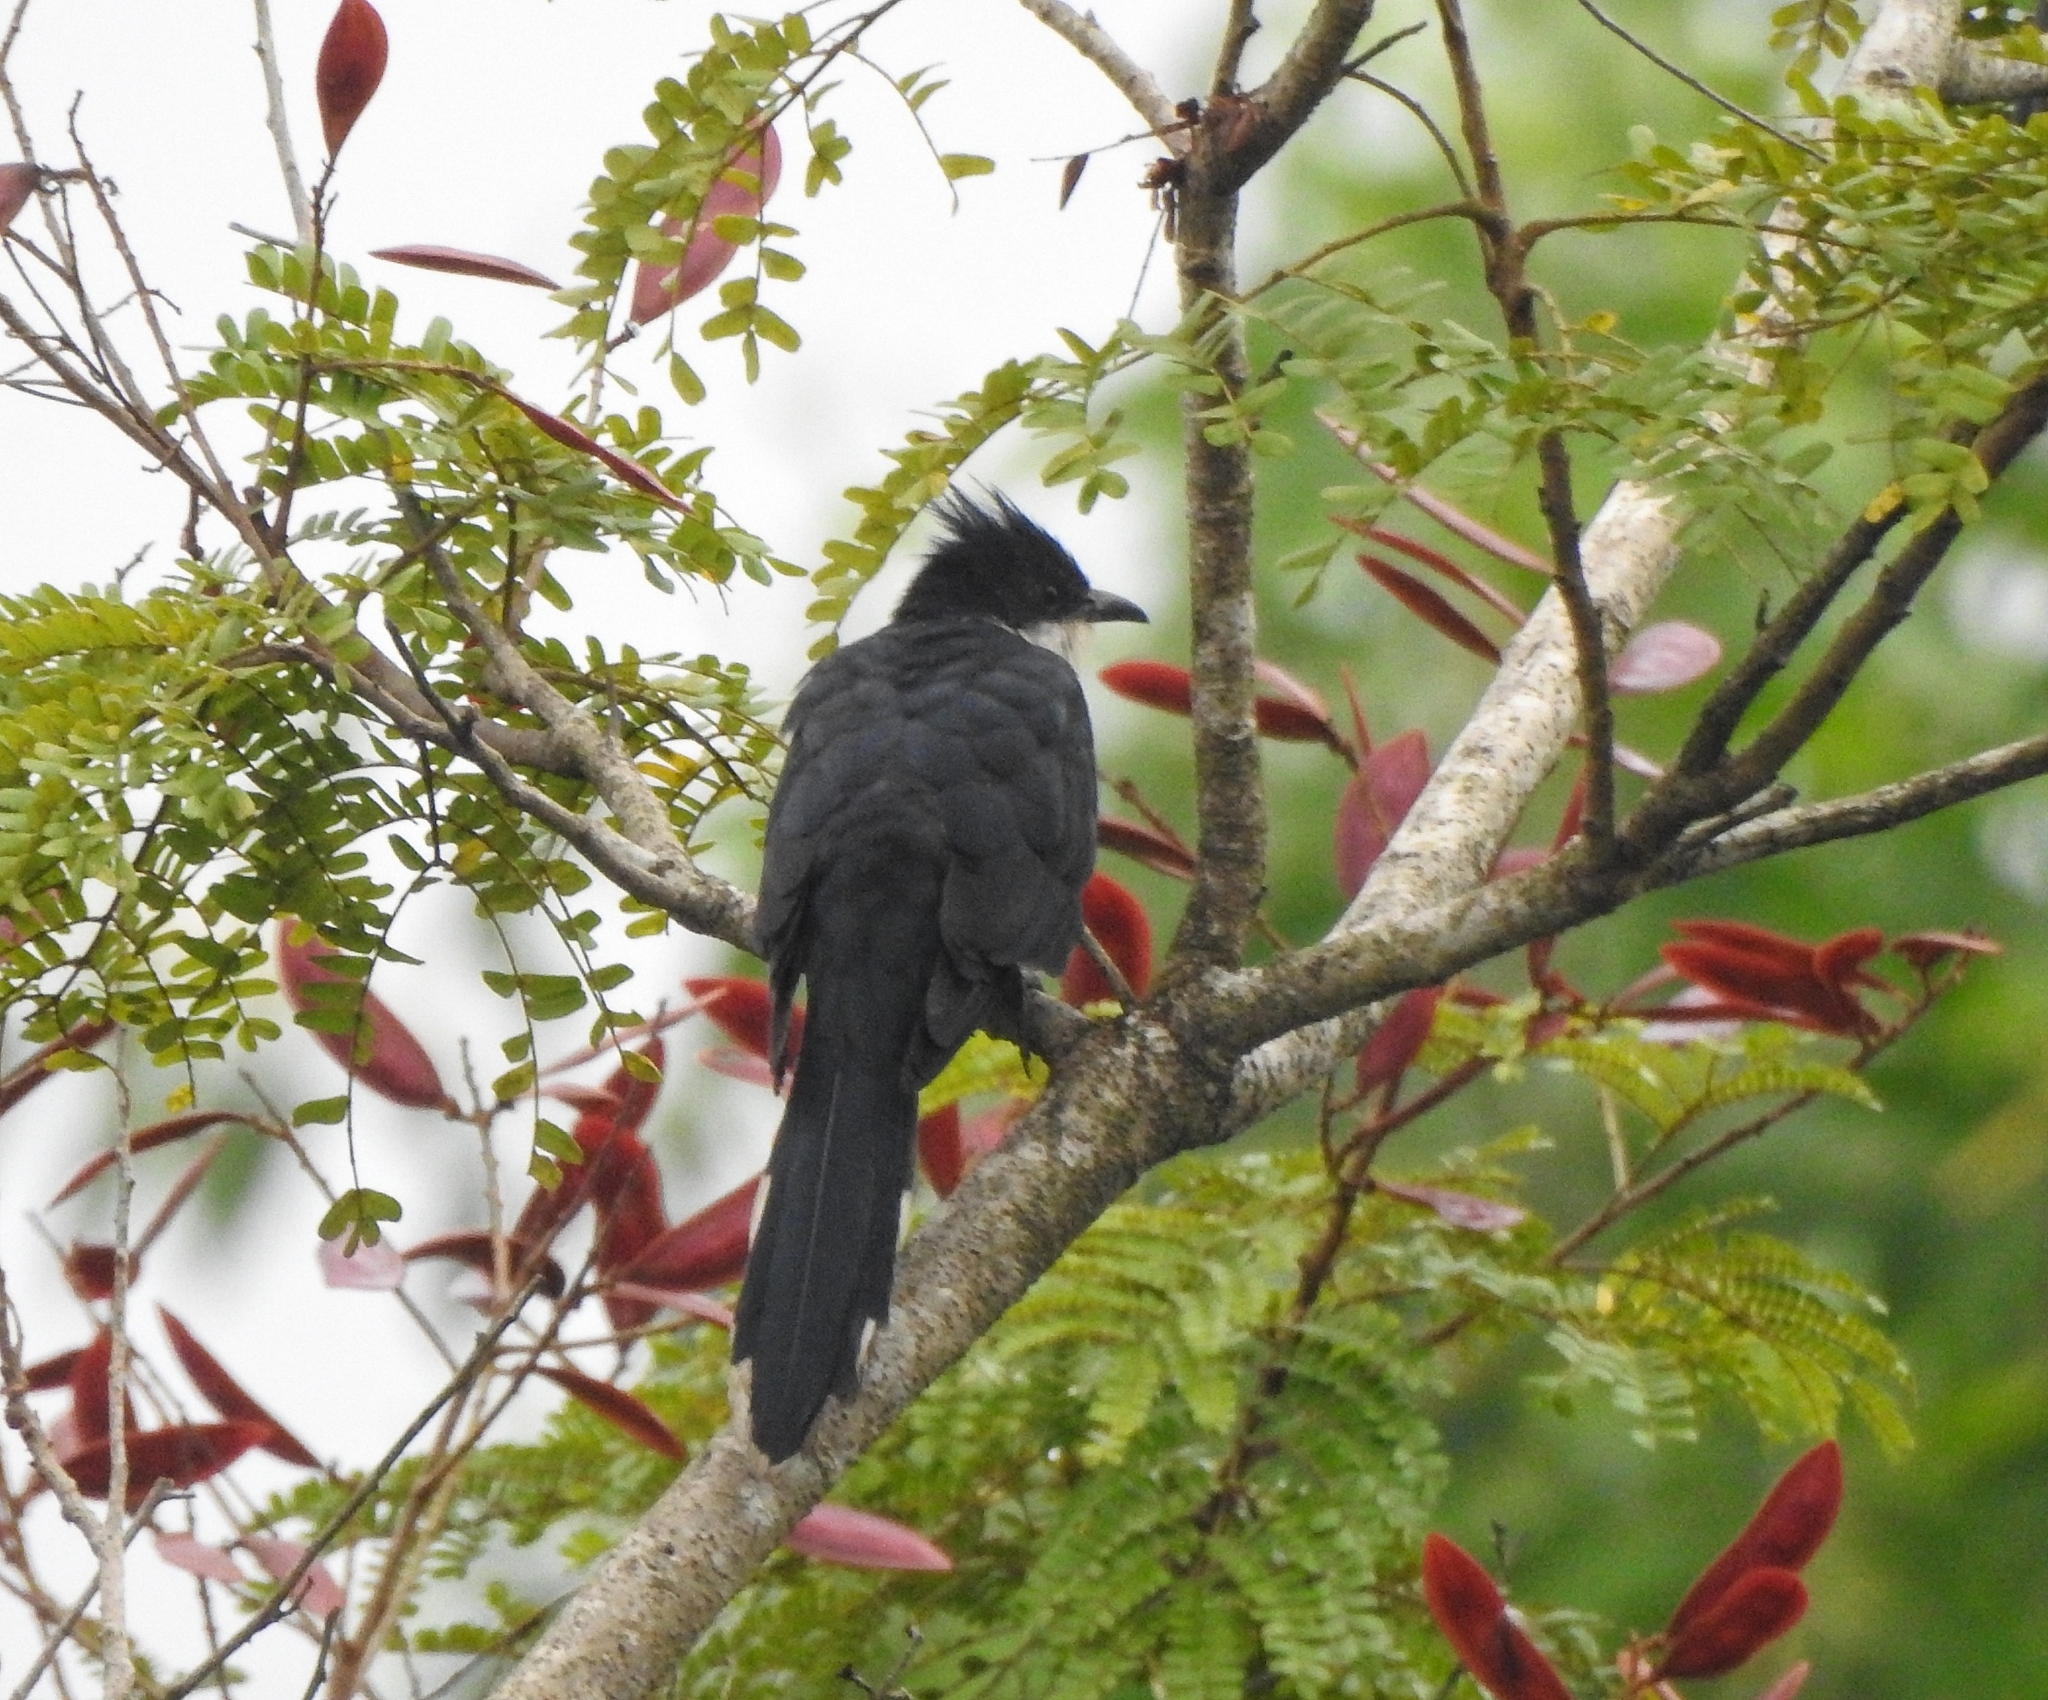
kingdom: Animalia
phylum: Chordata
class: Aves
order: Cuculiformes
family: Cuculidae
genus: Clamator
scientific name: Clamator jacobinus
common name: Jacobin cuckoo
